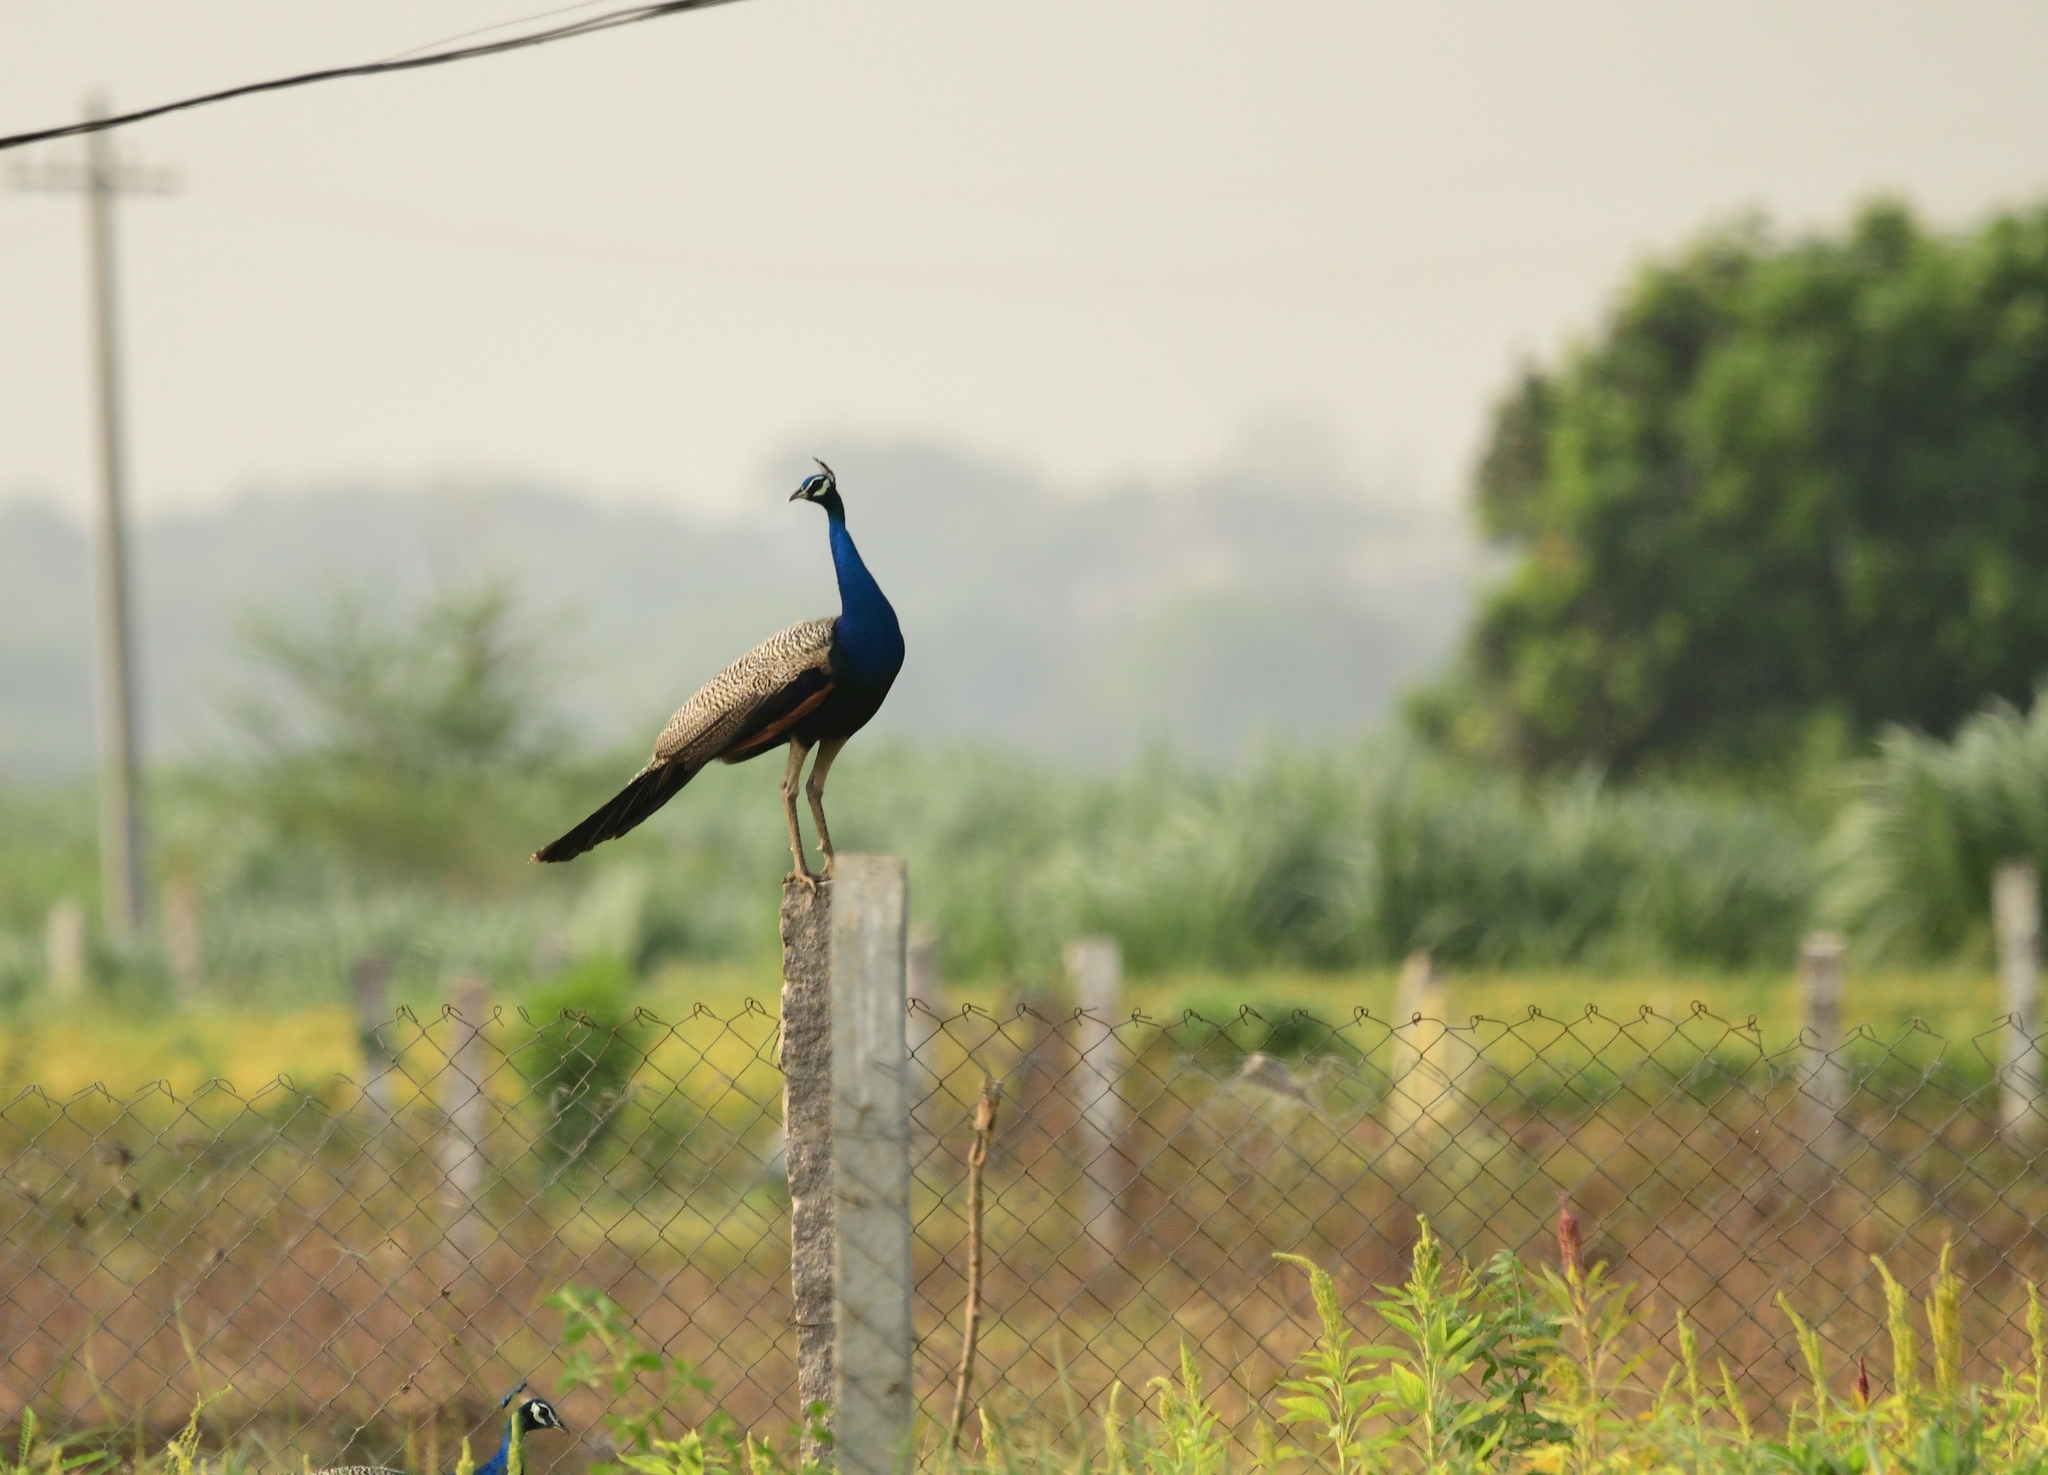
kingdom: Animalia
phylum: Chordata
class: Aves
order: Galliformes
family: Phasianidae
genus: Pavo
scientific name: Pavo cristatus
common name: Indian peafowl
